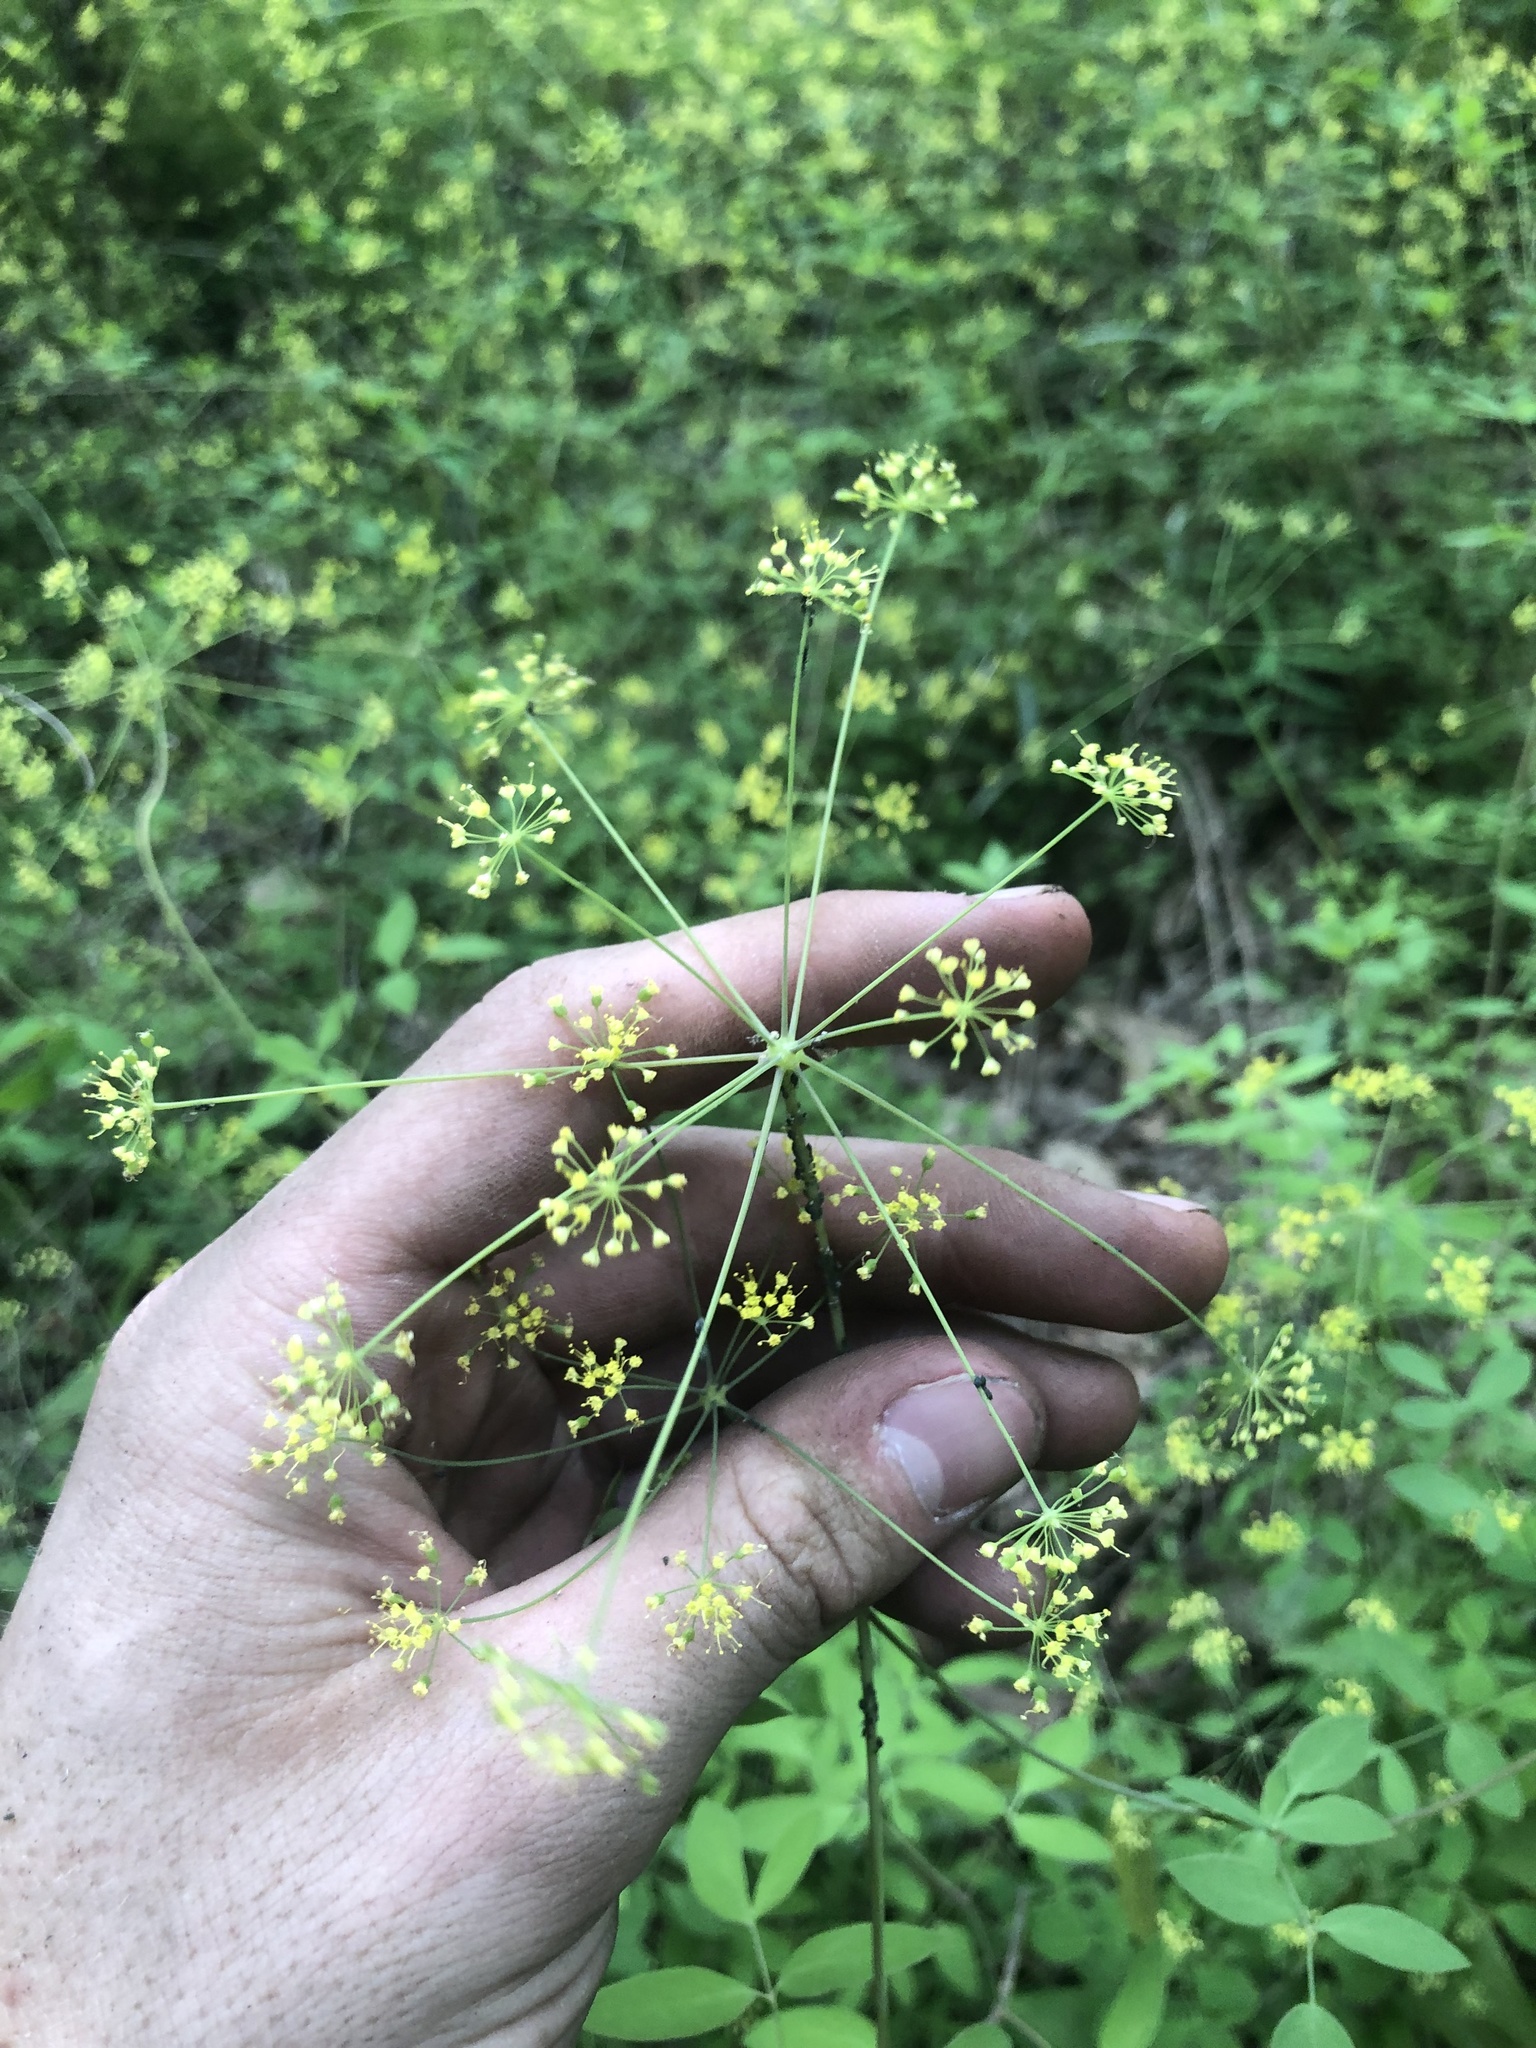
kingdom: Plantae
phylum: Tracheophyta
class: Magnoliopsida
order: Apiales
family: Apiaceae
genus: Taenidia
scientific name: Taenidia integerrima
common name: Golden alexander
